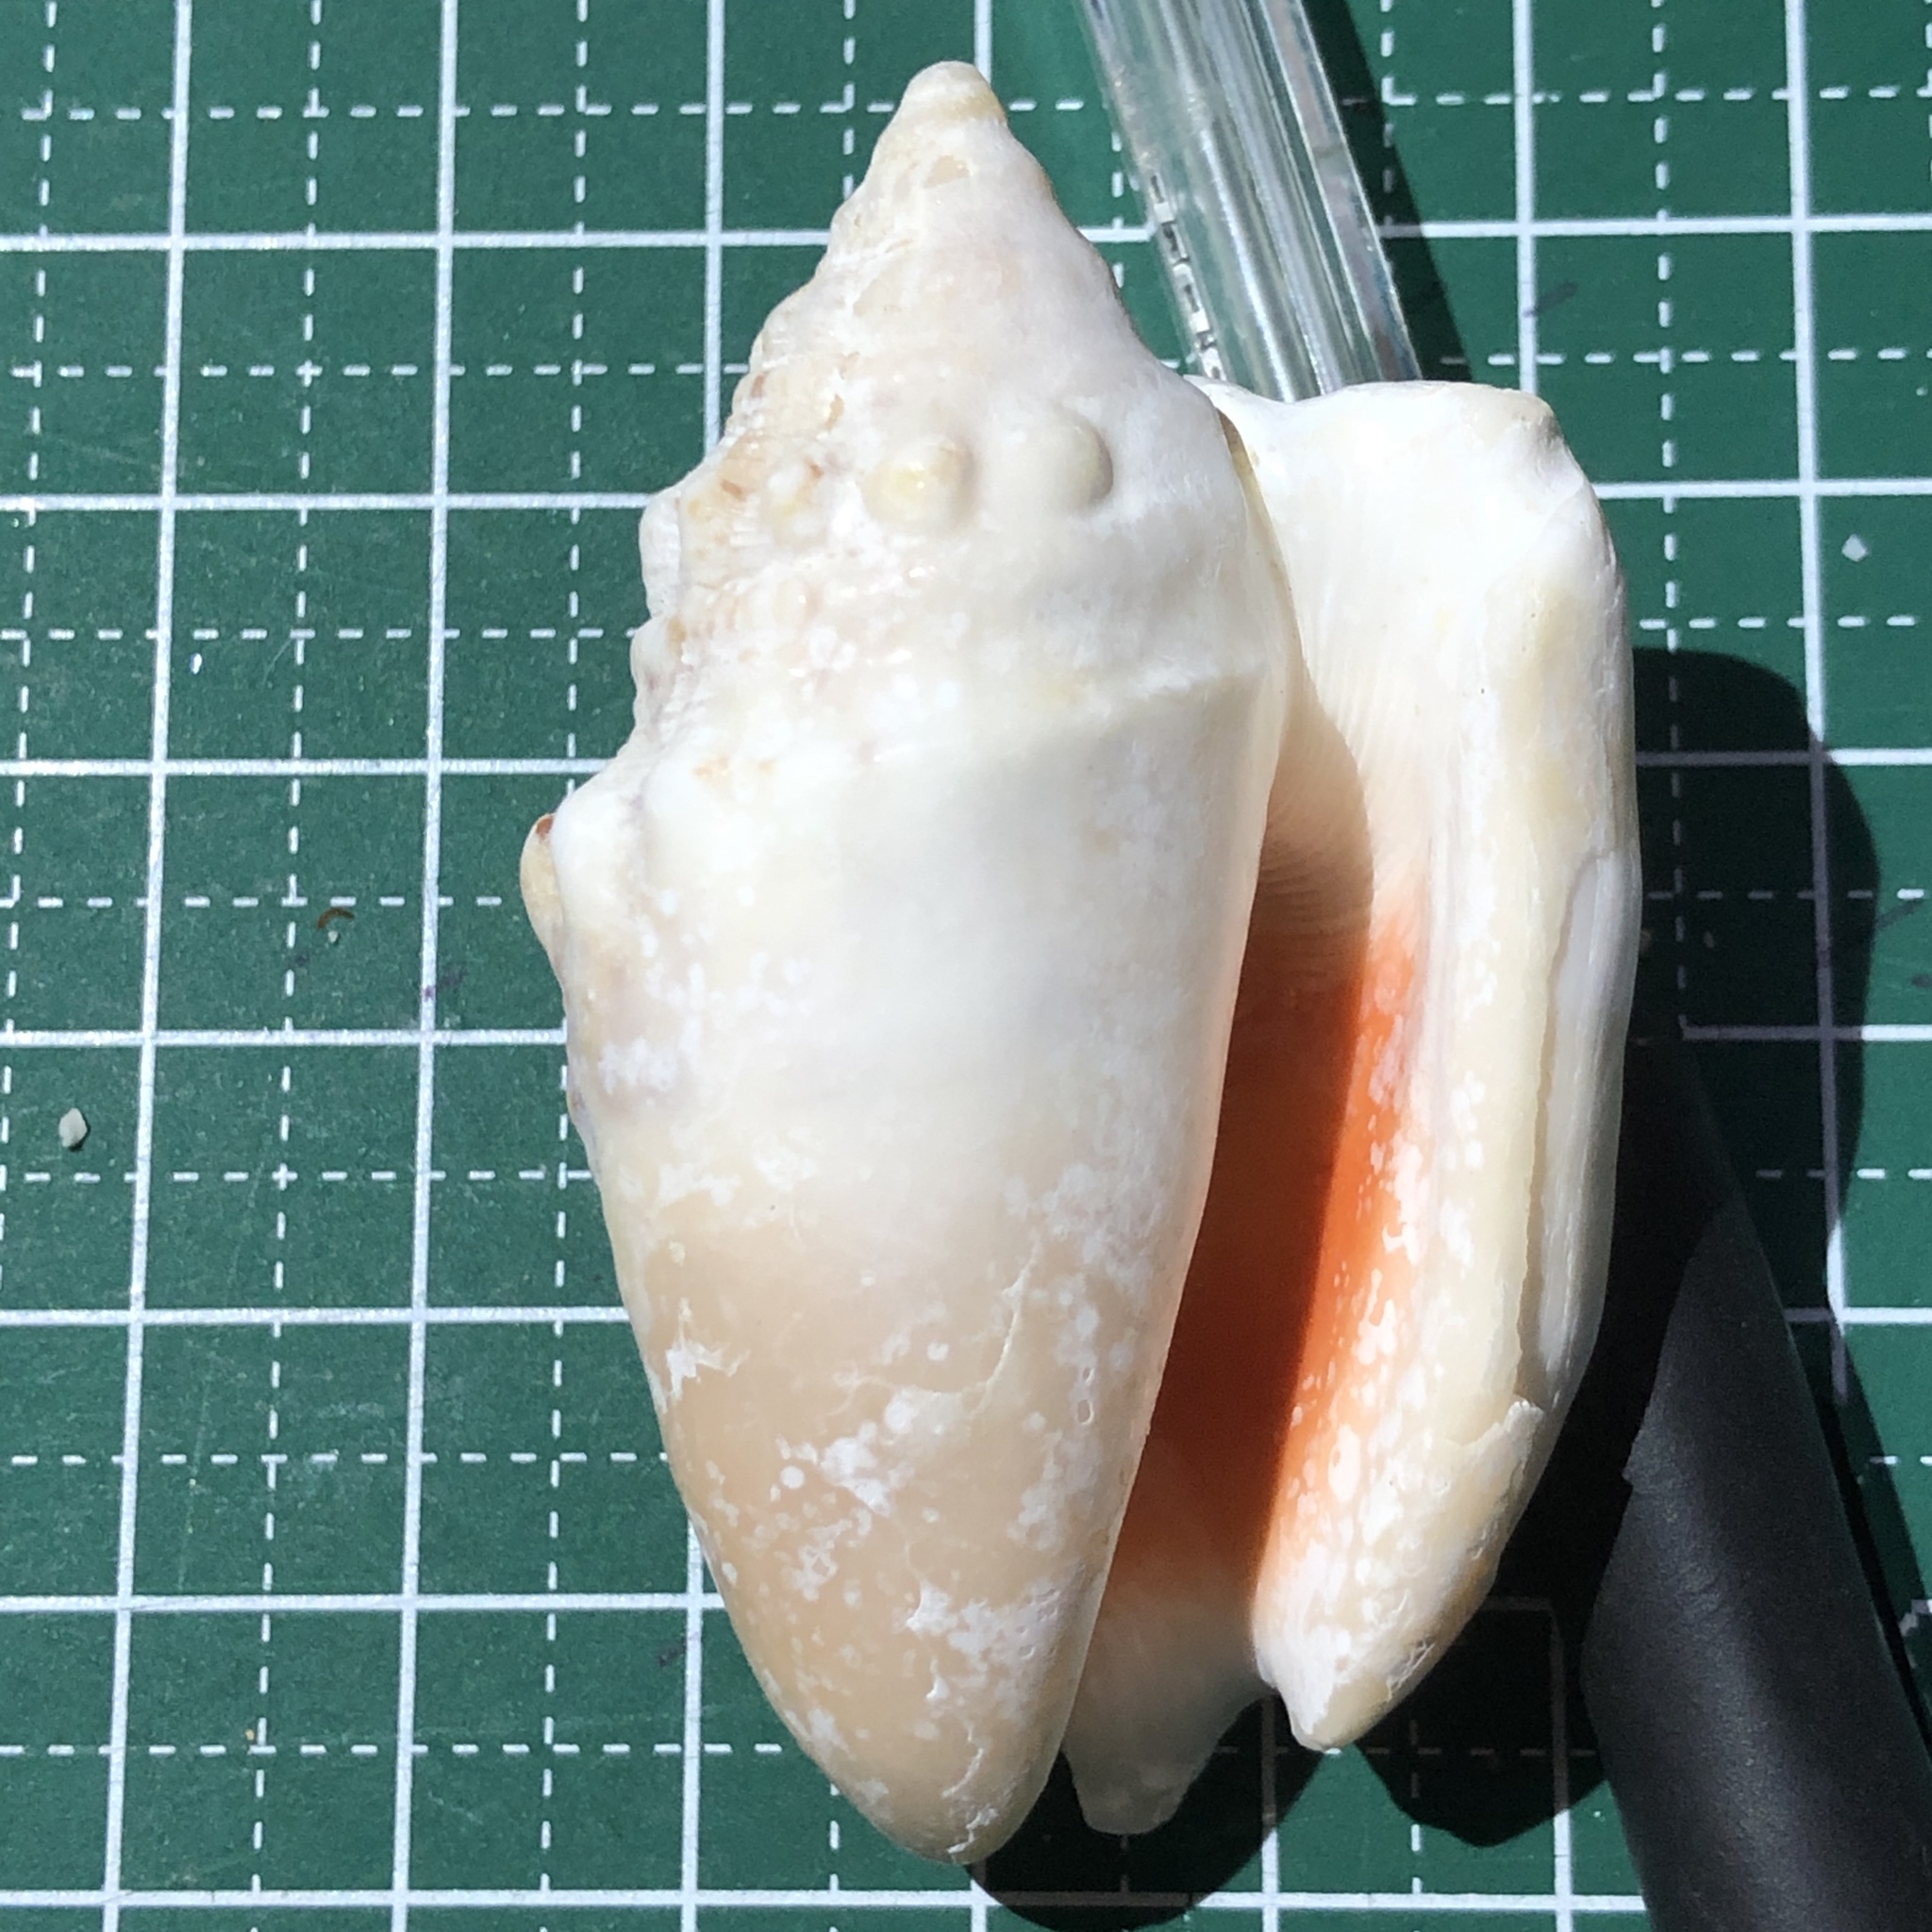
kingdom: Animalia
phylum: Mollusca
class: Gastropoda
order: Littorinimorpha
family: Strombidae
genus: Euprotomus
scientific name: Euprotomus aurisdianae
